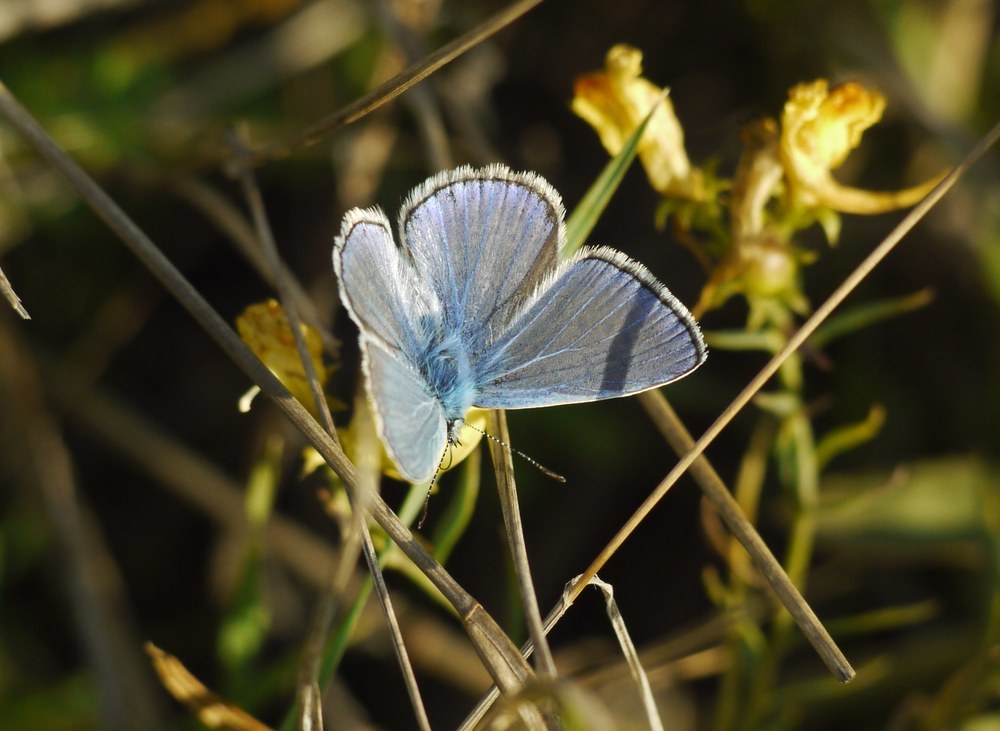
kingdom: Animalia
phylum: Arthropoda
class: Insecta
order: Lepidoptera
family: Lycaenidae
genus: Polyommatus
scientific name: Polyommatus icarus
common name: Common blue
